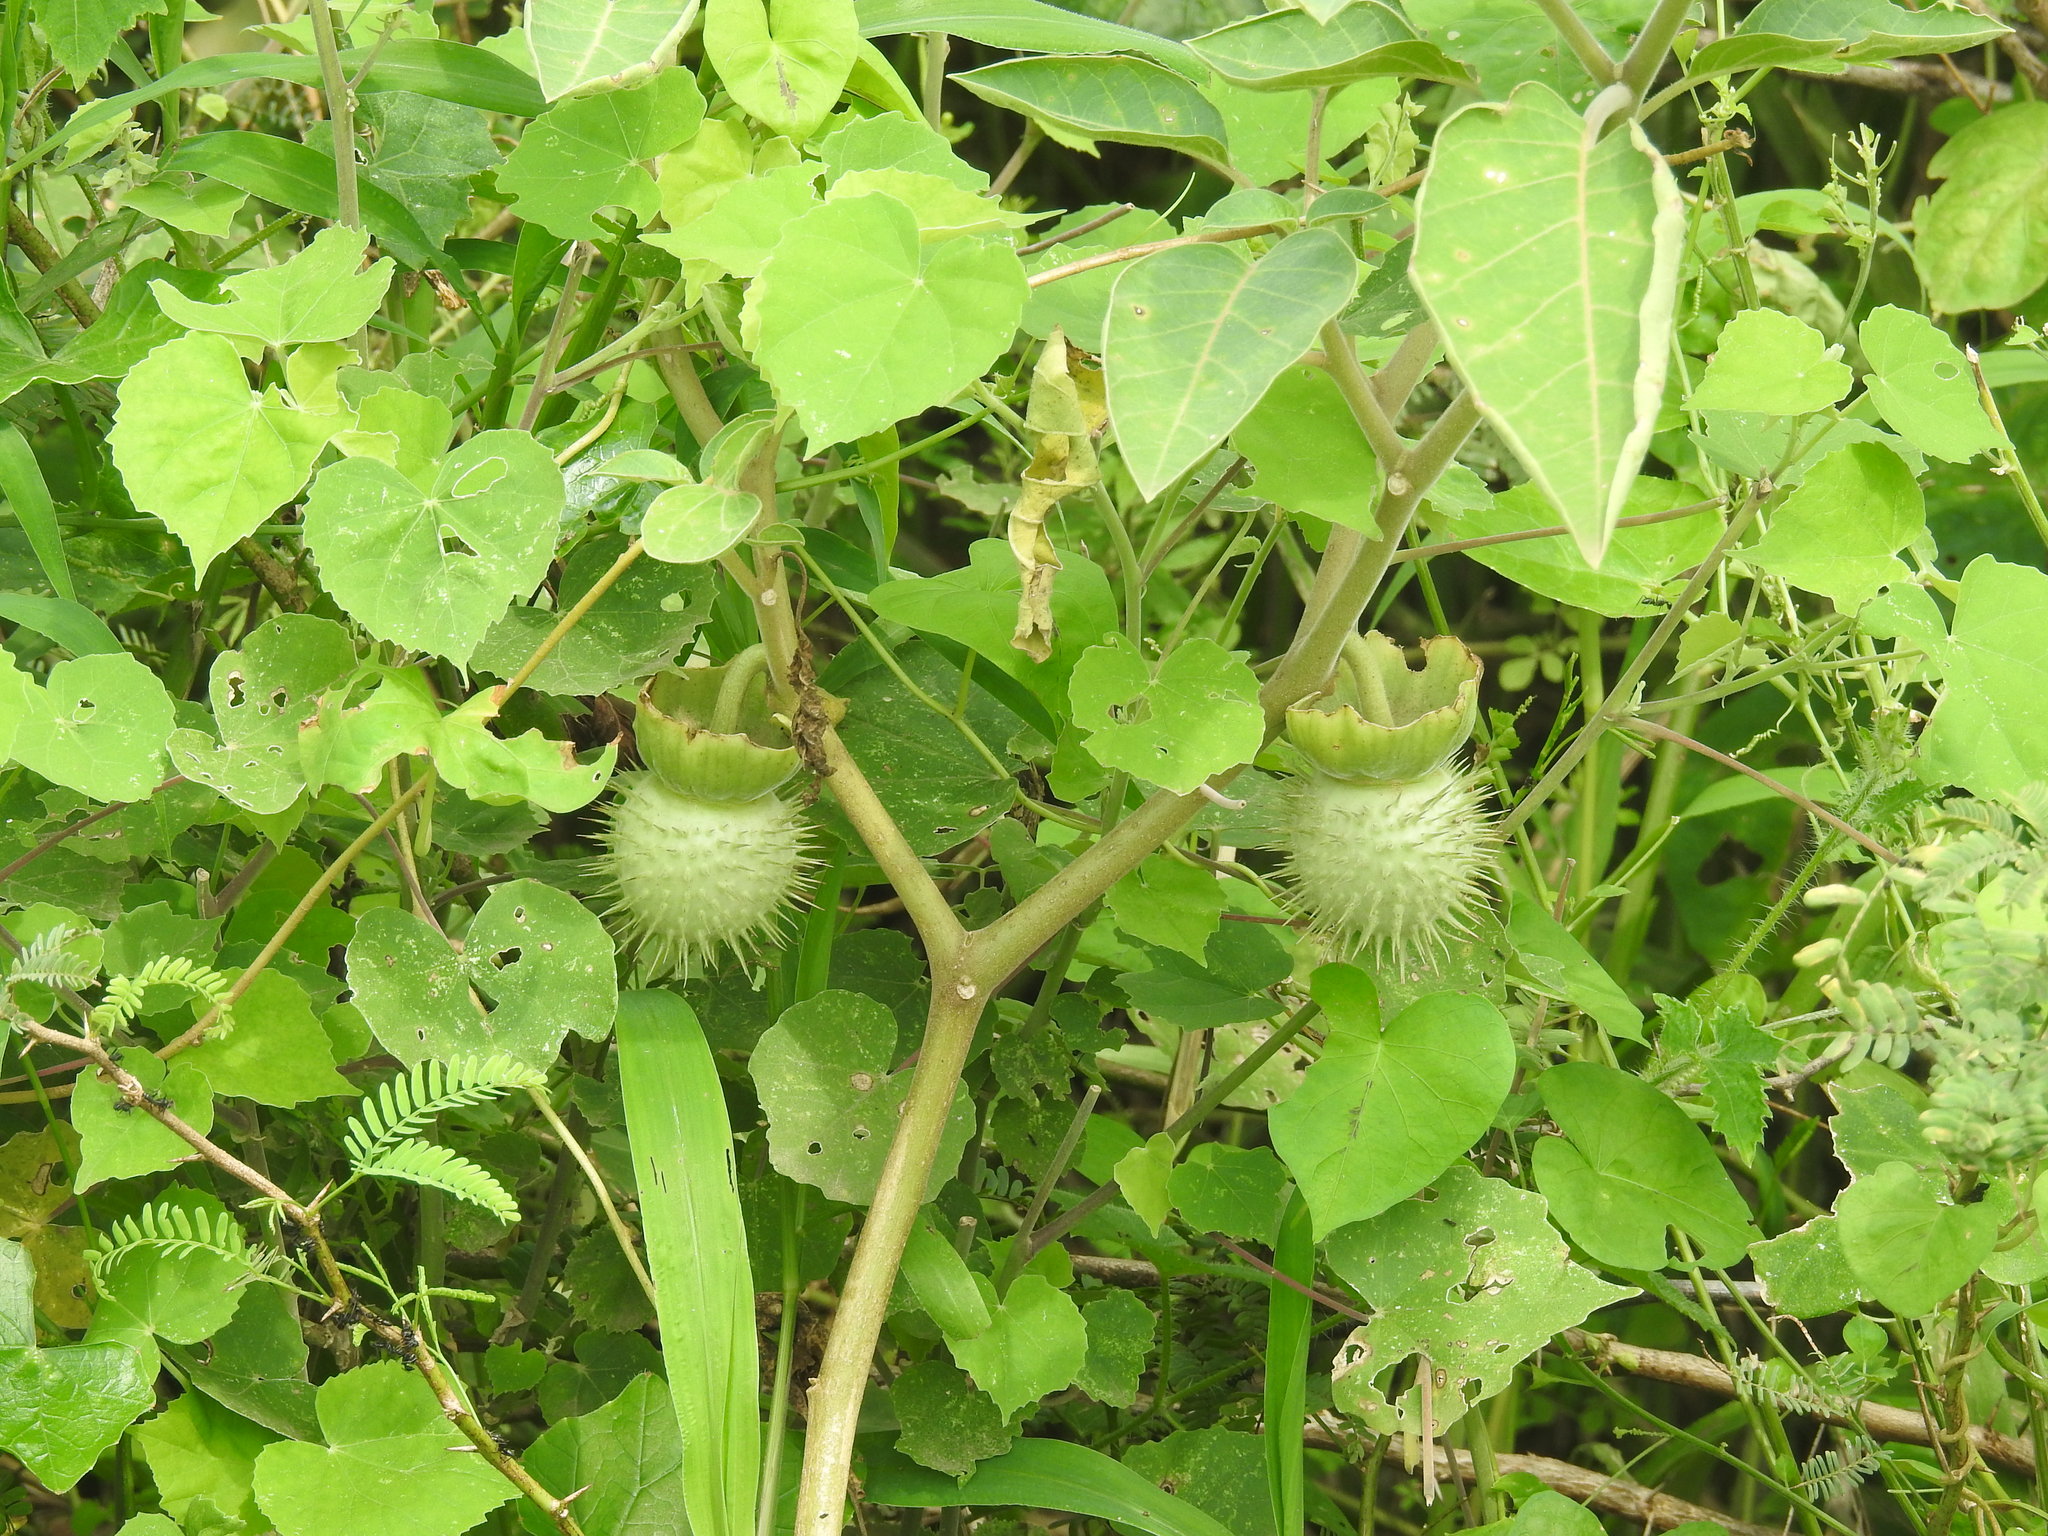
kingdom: Plantae
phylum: Tracheophyta
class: Magnoliopsida
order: Solanales
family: Solanaceae
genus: Datura
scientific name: Datura innoxia
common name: Downy thorn-apple
